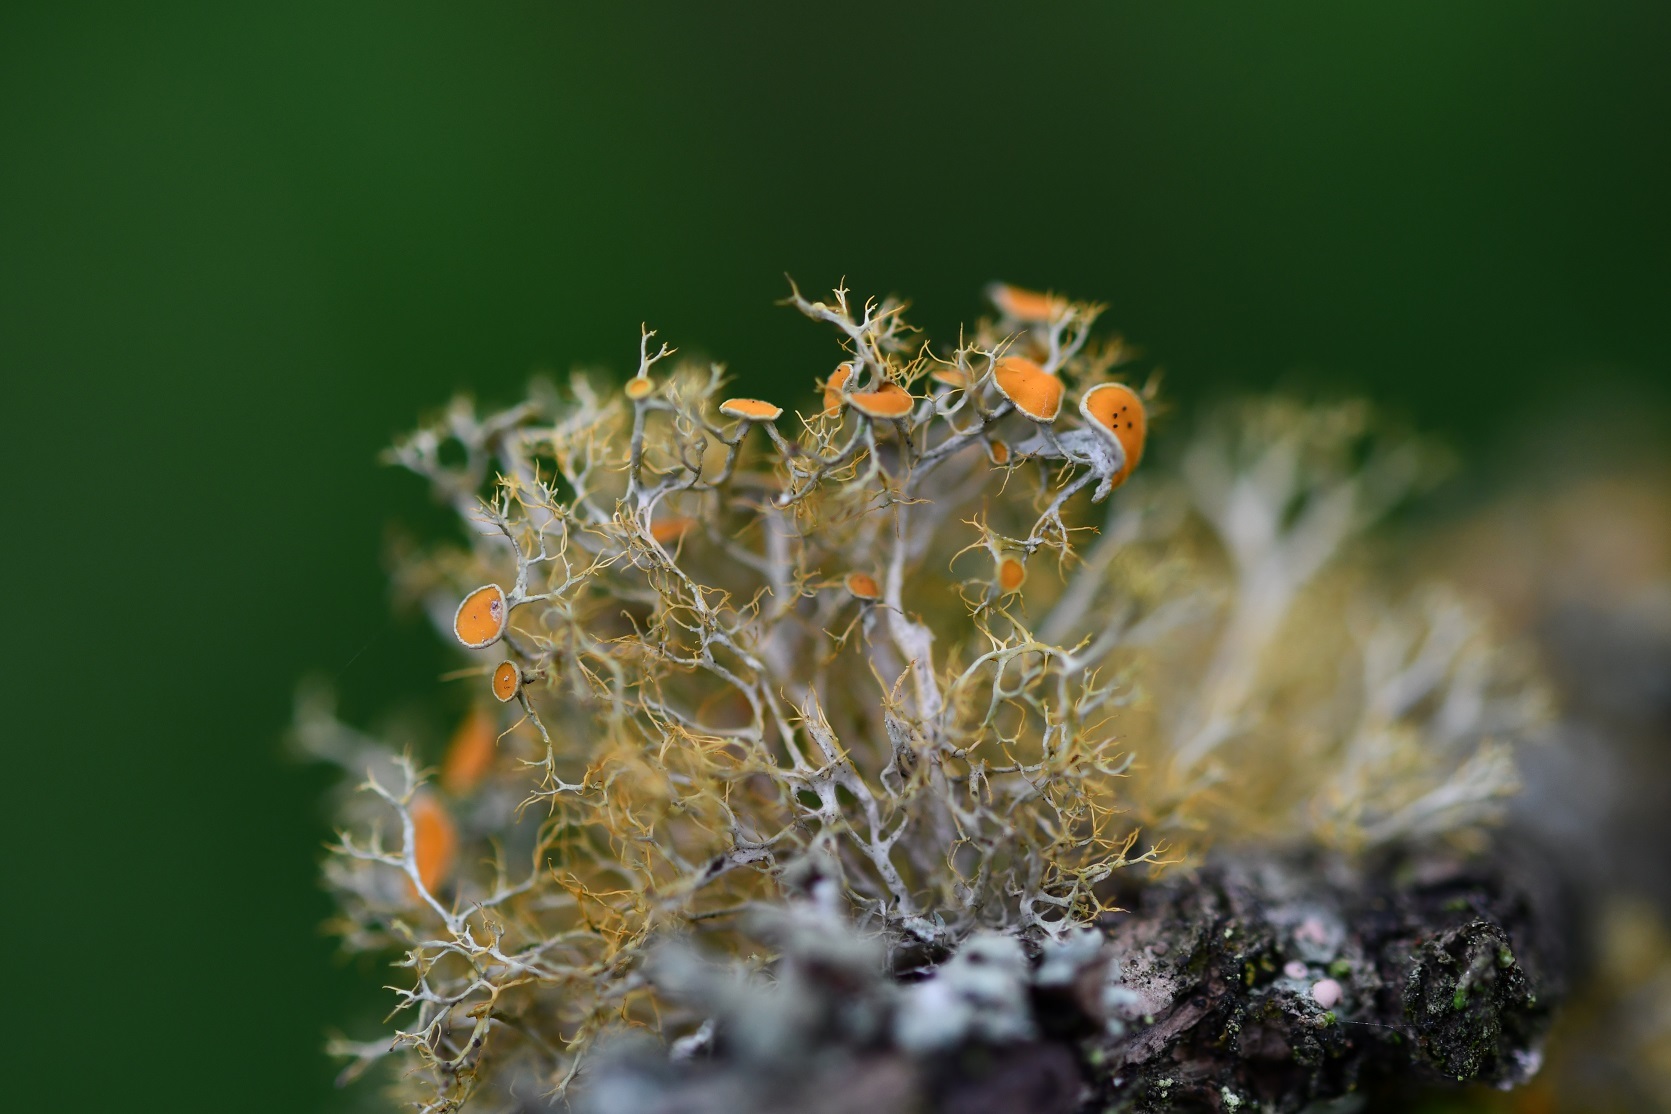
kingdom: Fungi
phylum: Ascomycota
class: Lecanoromycetes
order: Teloschistales
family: Teloschistaceae
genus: Teloschistes
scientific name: Teloschistes exilis
